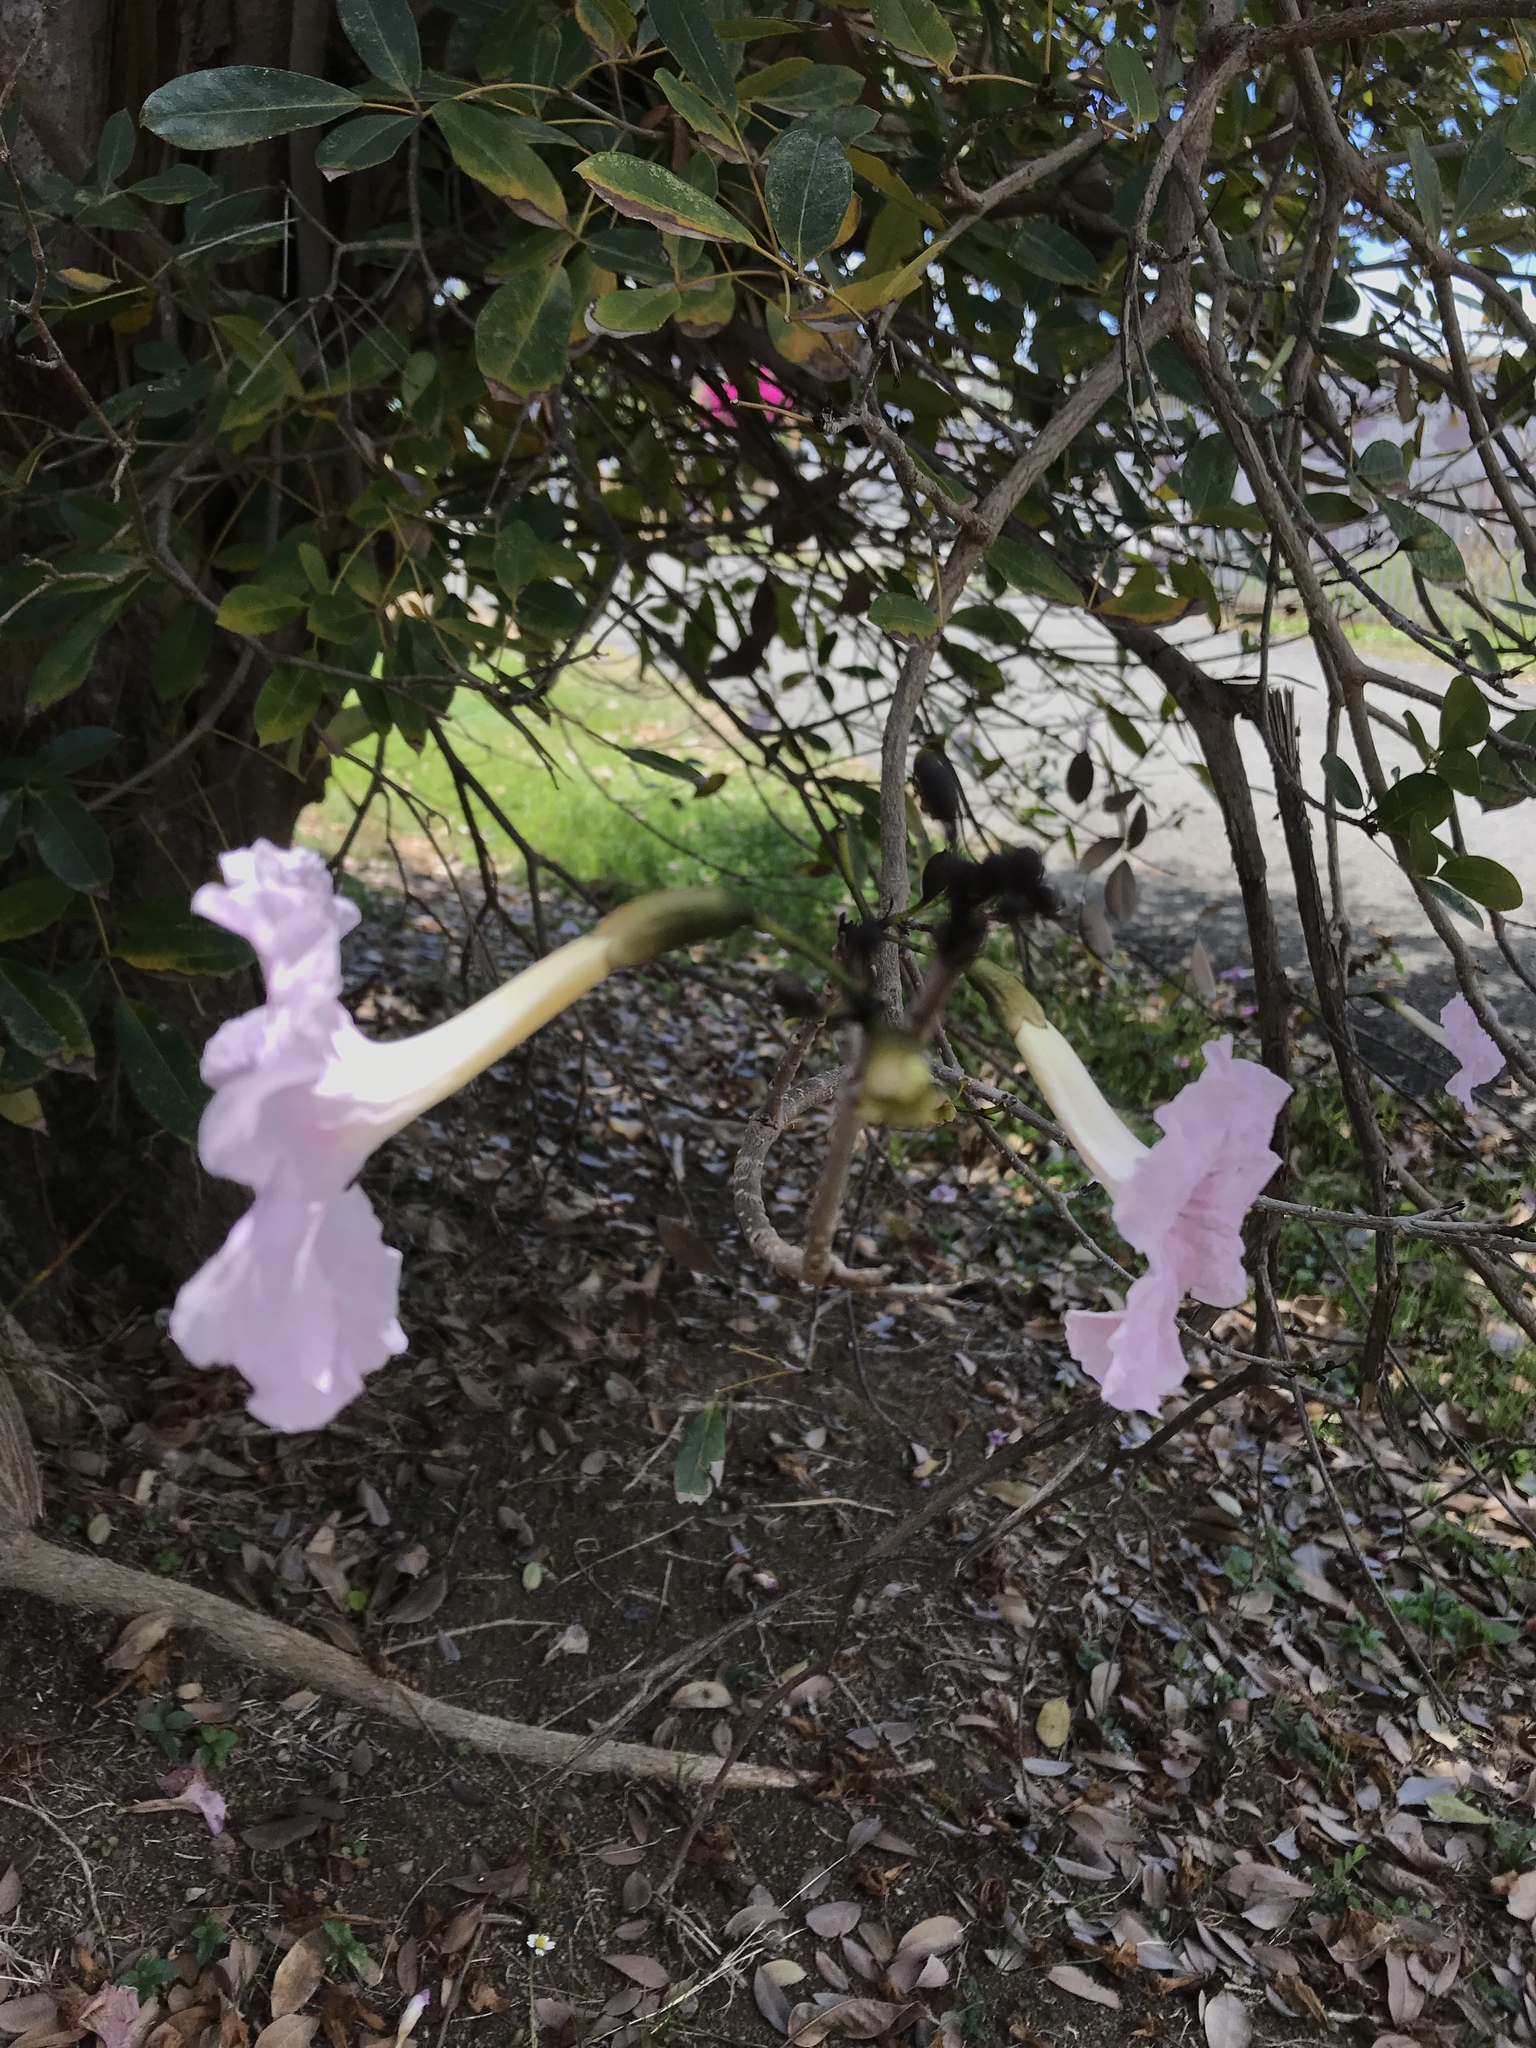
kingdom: Plantae
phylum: Tracheophyta
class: Magnoliopsida
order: Lamiales
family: Bignoniaceae
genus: Tabebuia
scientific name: Tabebuia heterophylla
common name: White cedar
